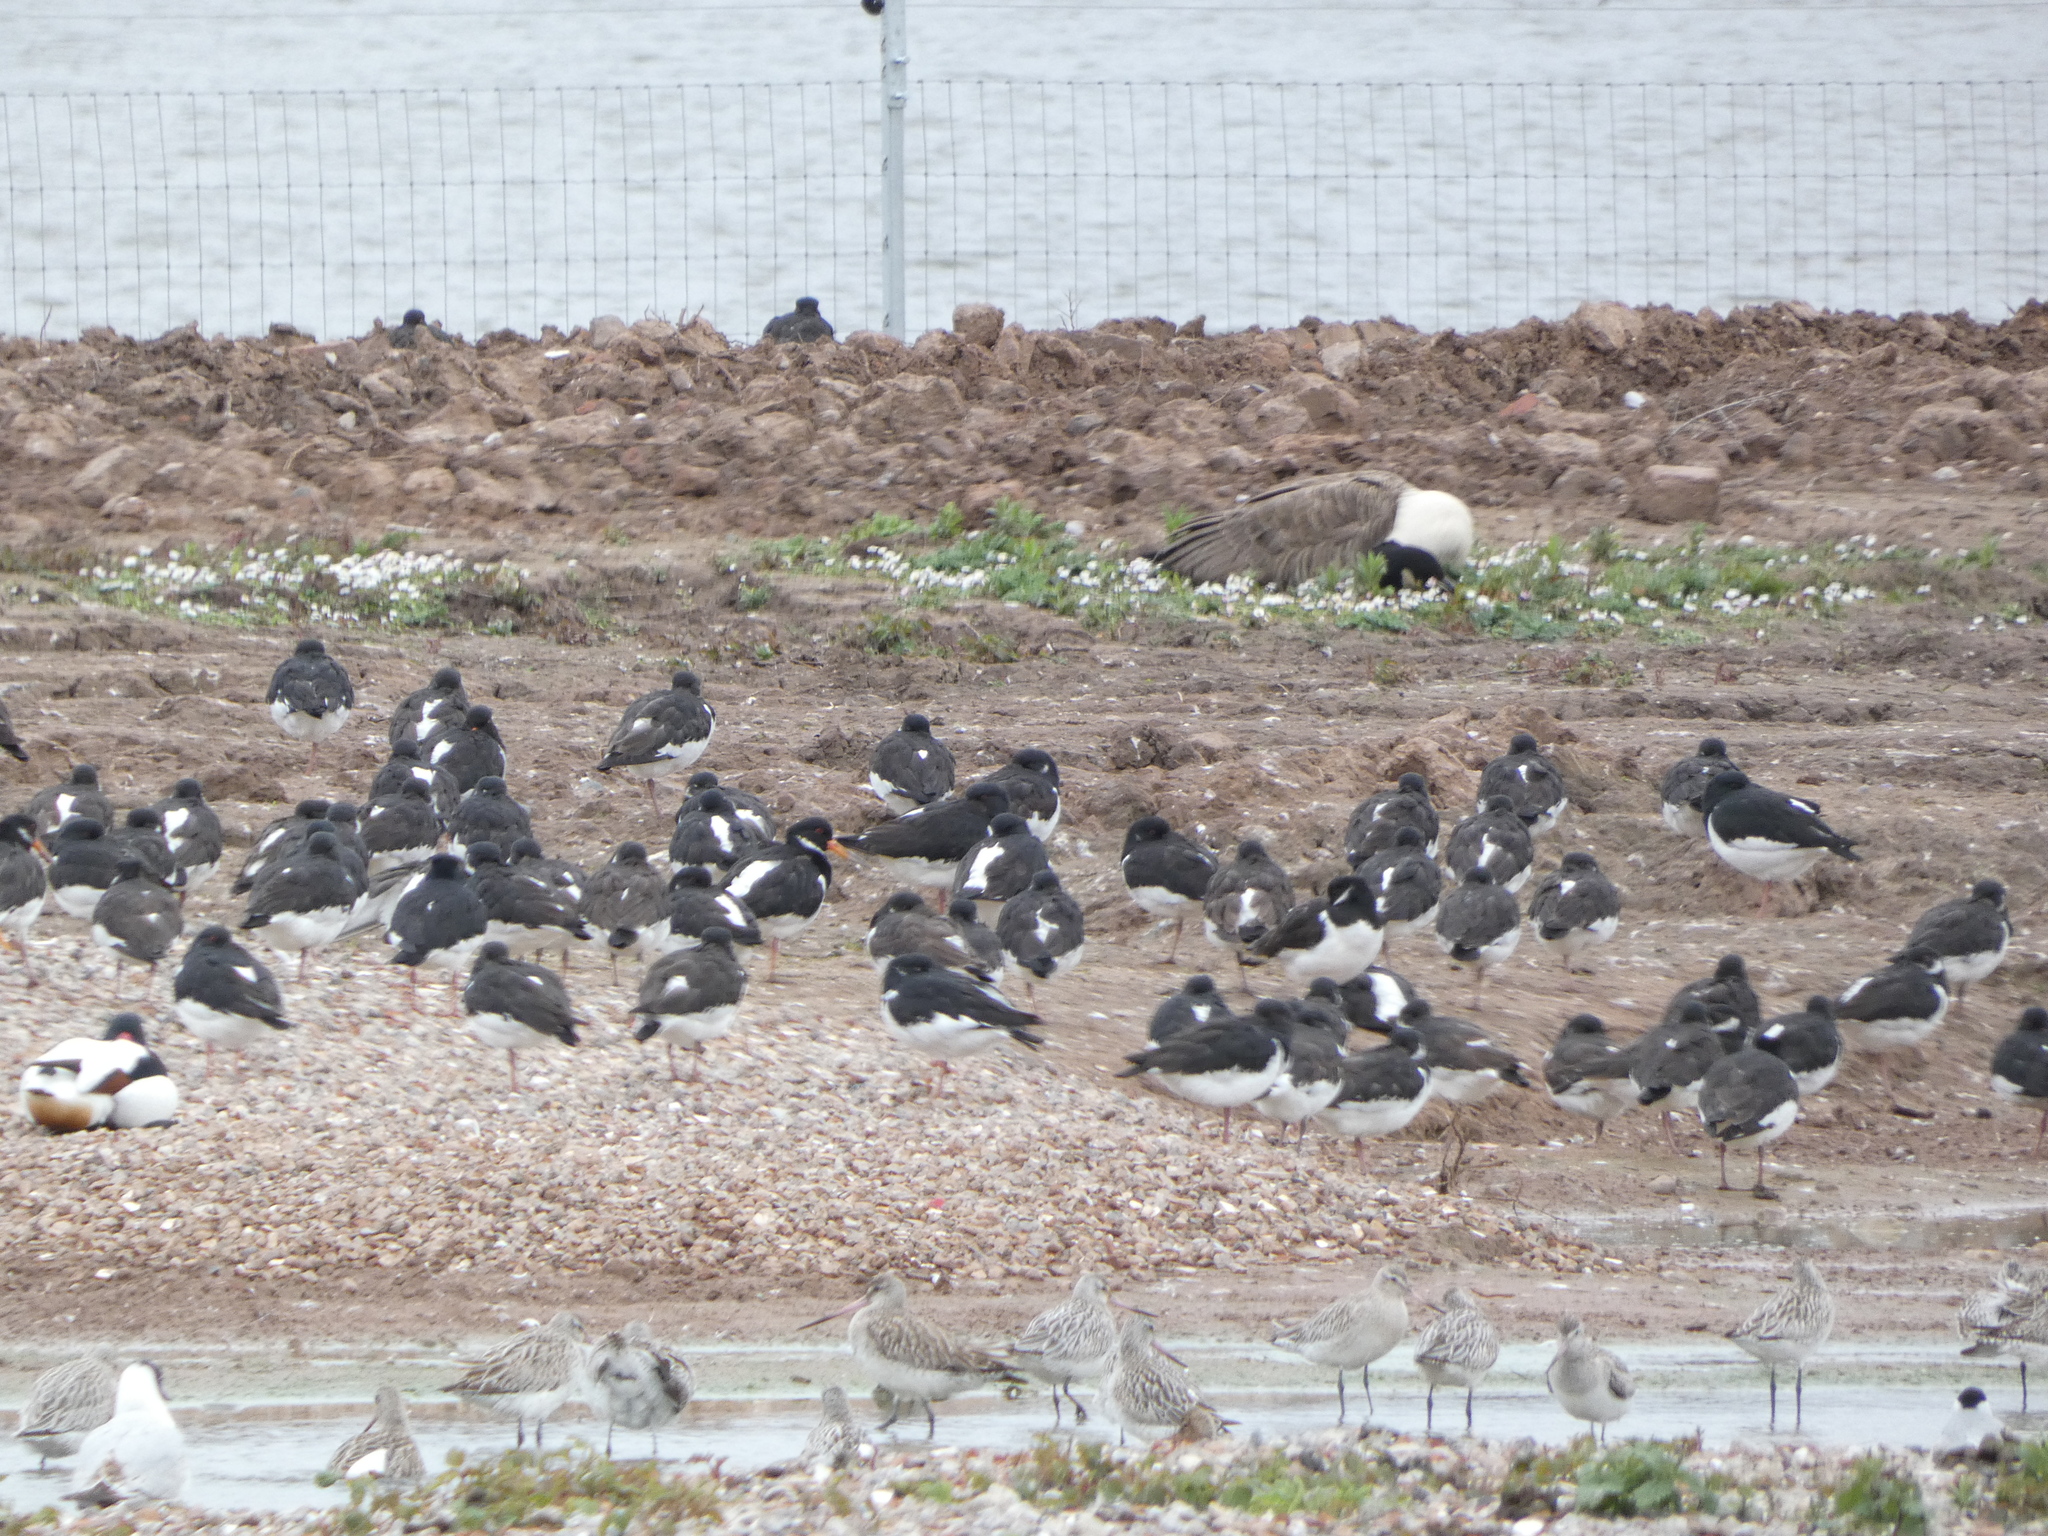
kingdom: Animalia
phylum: Chordata
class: Aves
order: Charadriiformes
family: Haematopodidae
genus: Haematopus
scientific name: Haematopus ostralegus
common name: Eurasian oystercatcher
